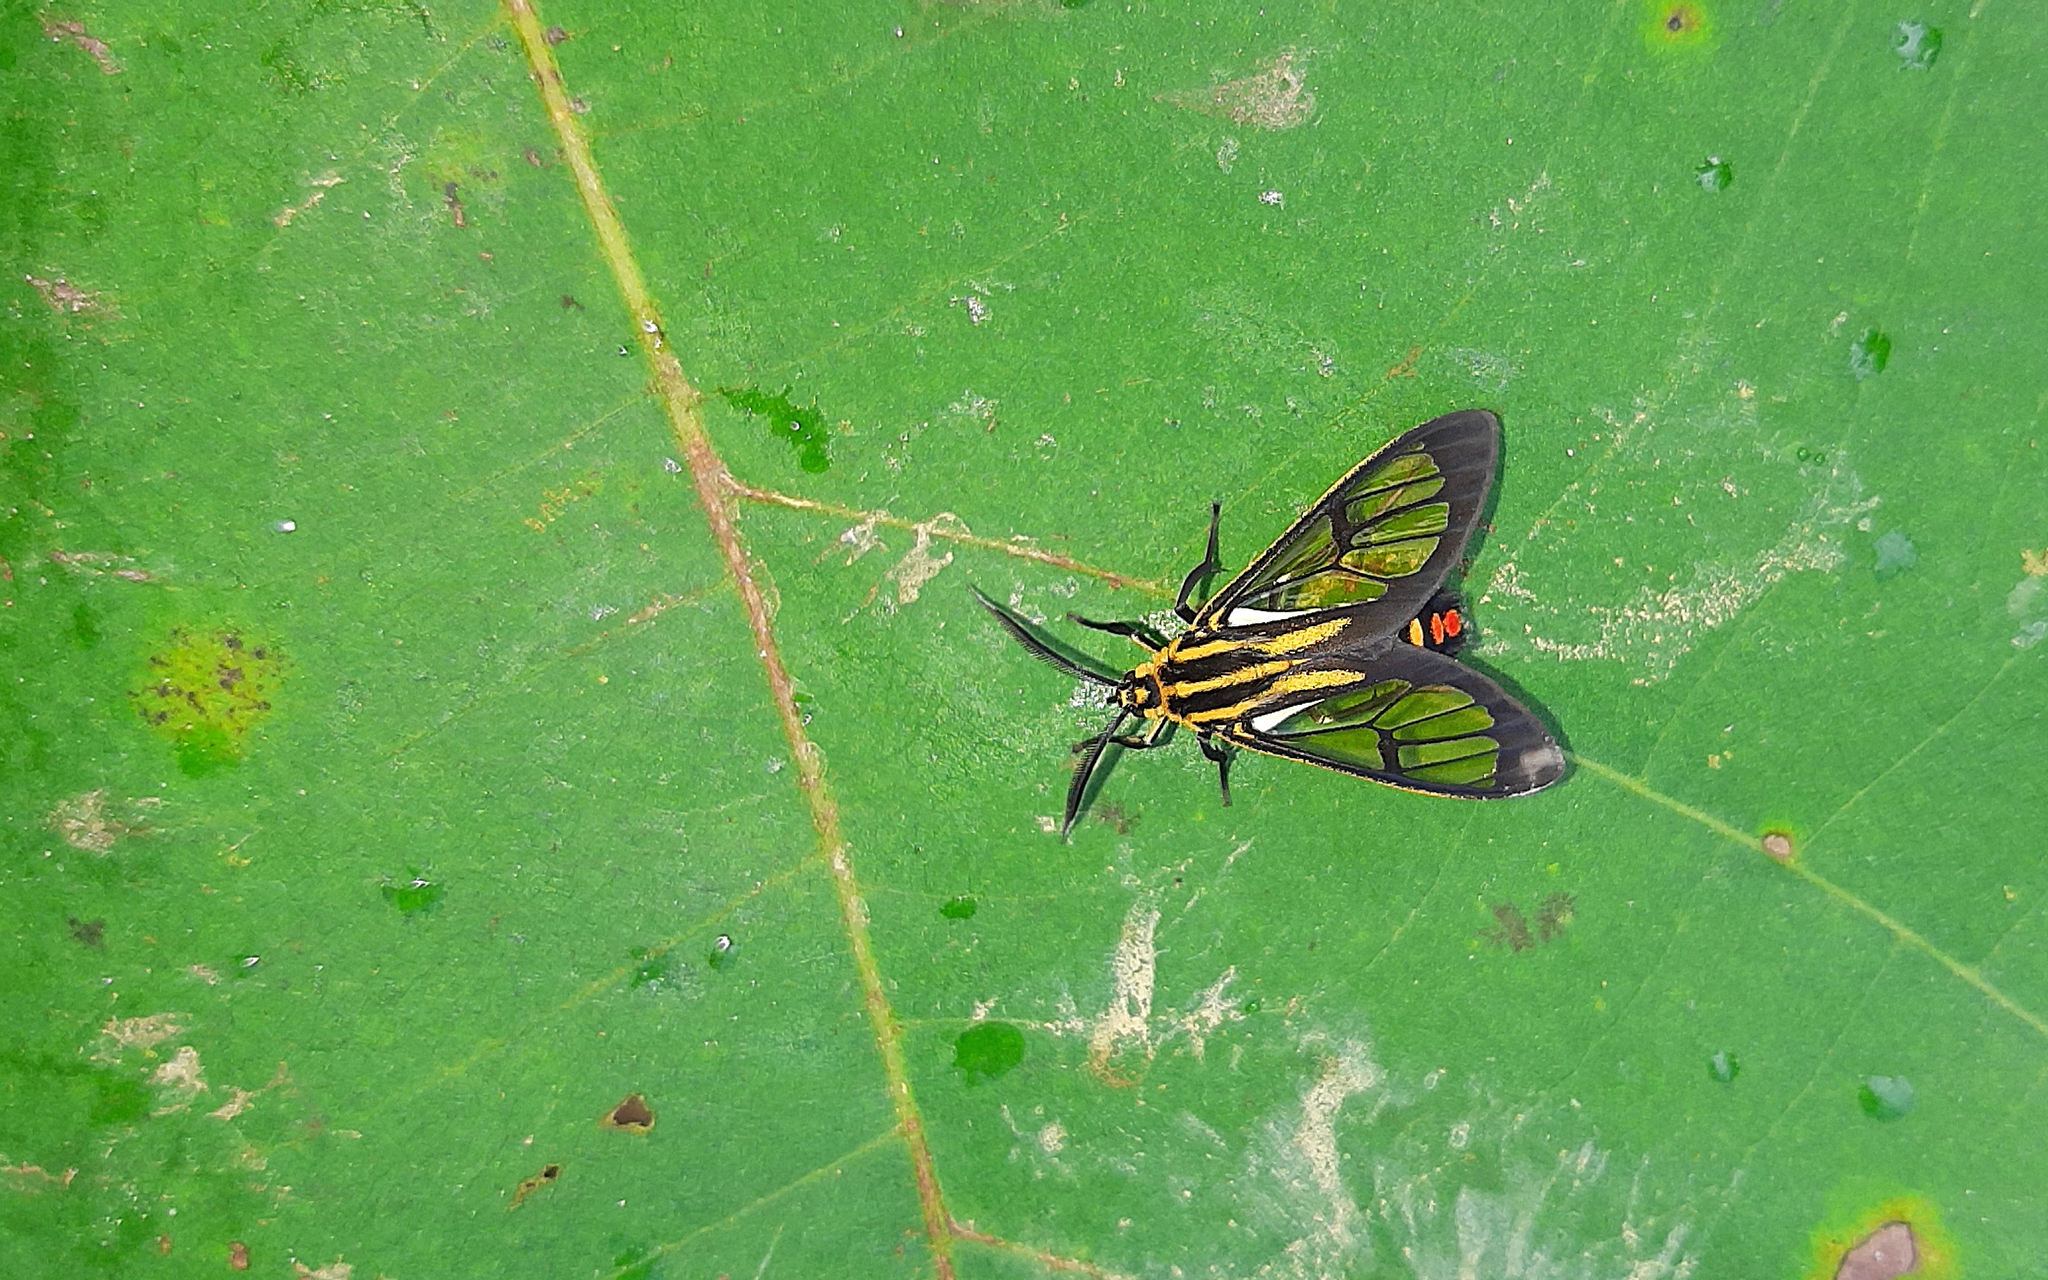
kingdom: Animalia
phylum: Arthropoda
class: Insecta
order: Lepidoptera
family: Erebidae
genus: Paraethria
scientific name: Paraethria flavosignata
